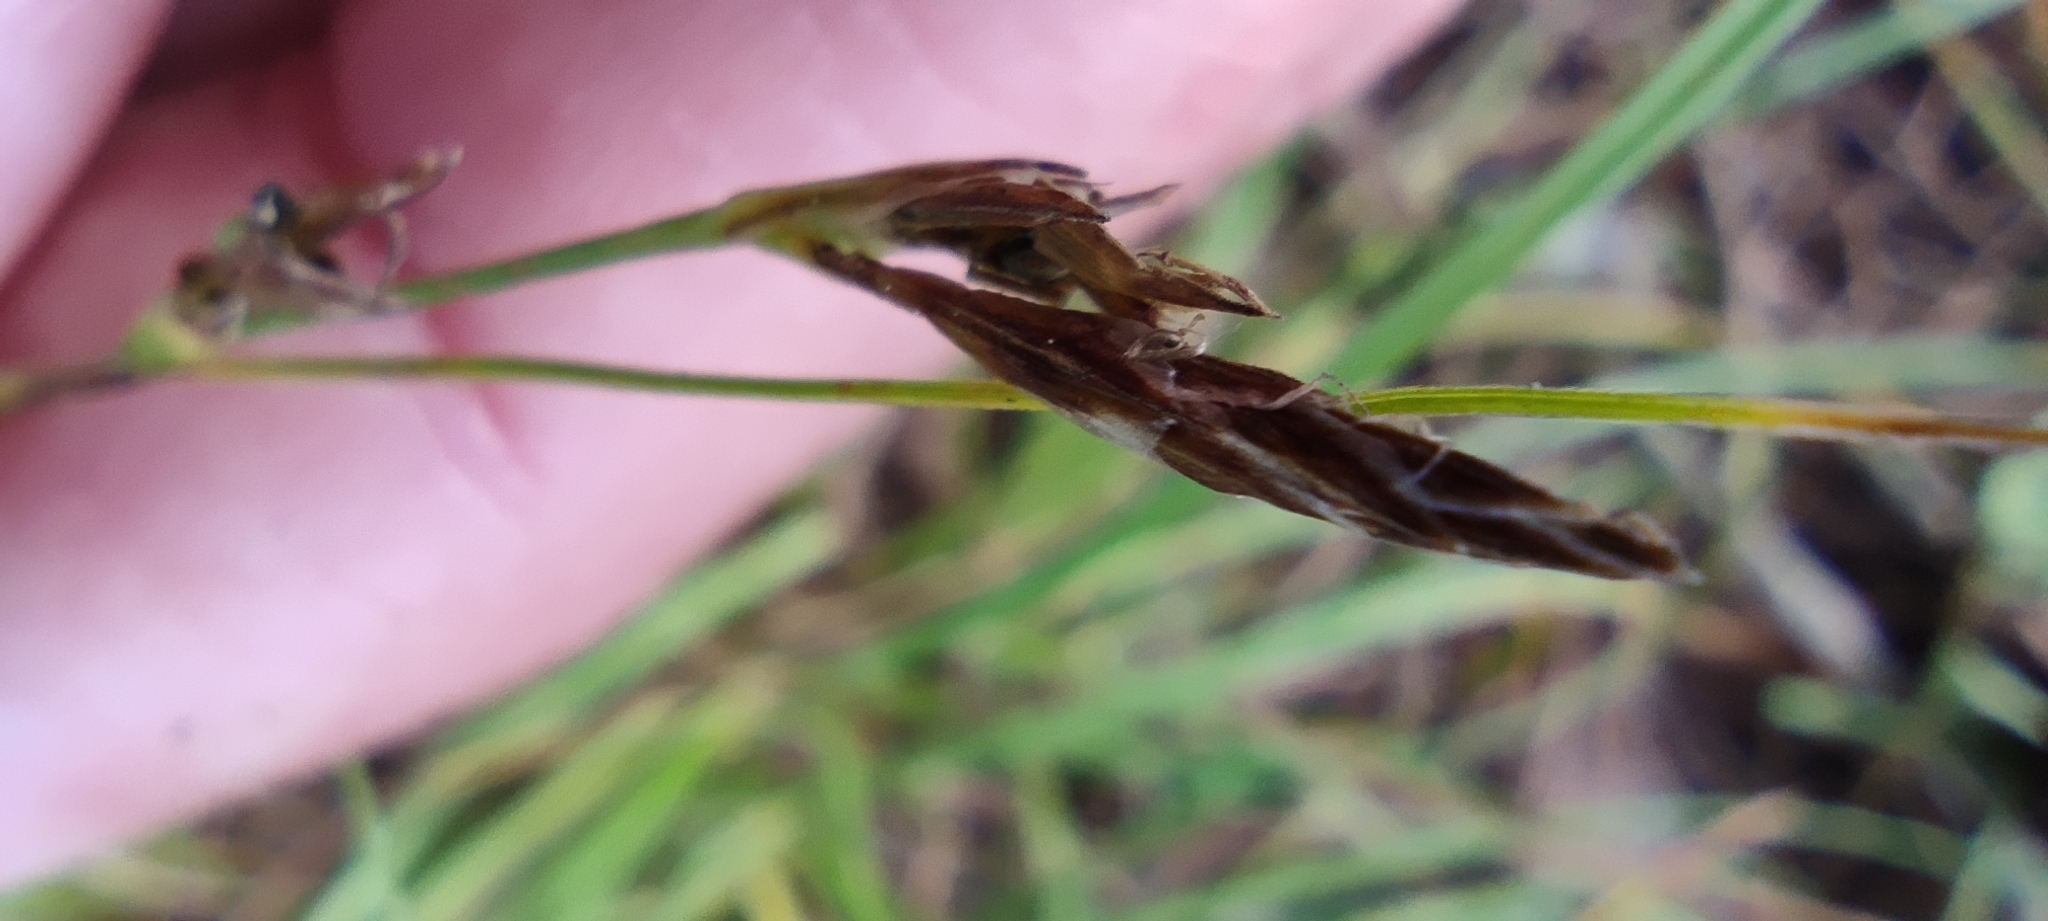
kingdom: Plantae
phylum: Tracheophyta
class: Liliopsida
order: Poales
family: Cyperaceae
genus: Carex
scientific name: Carex halleriana
